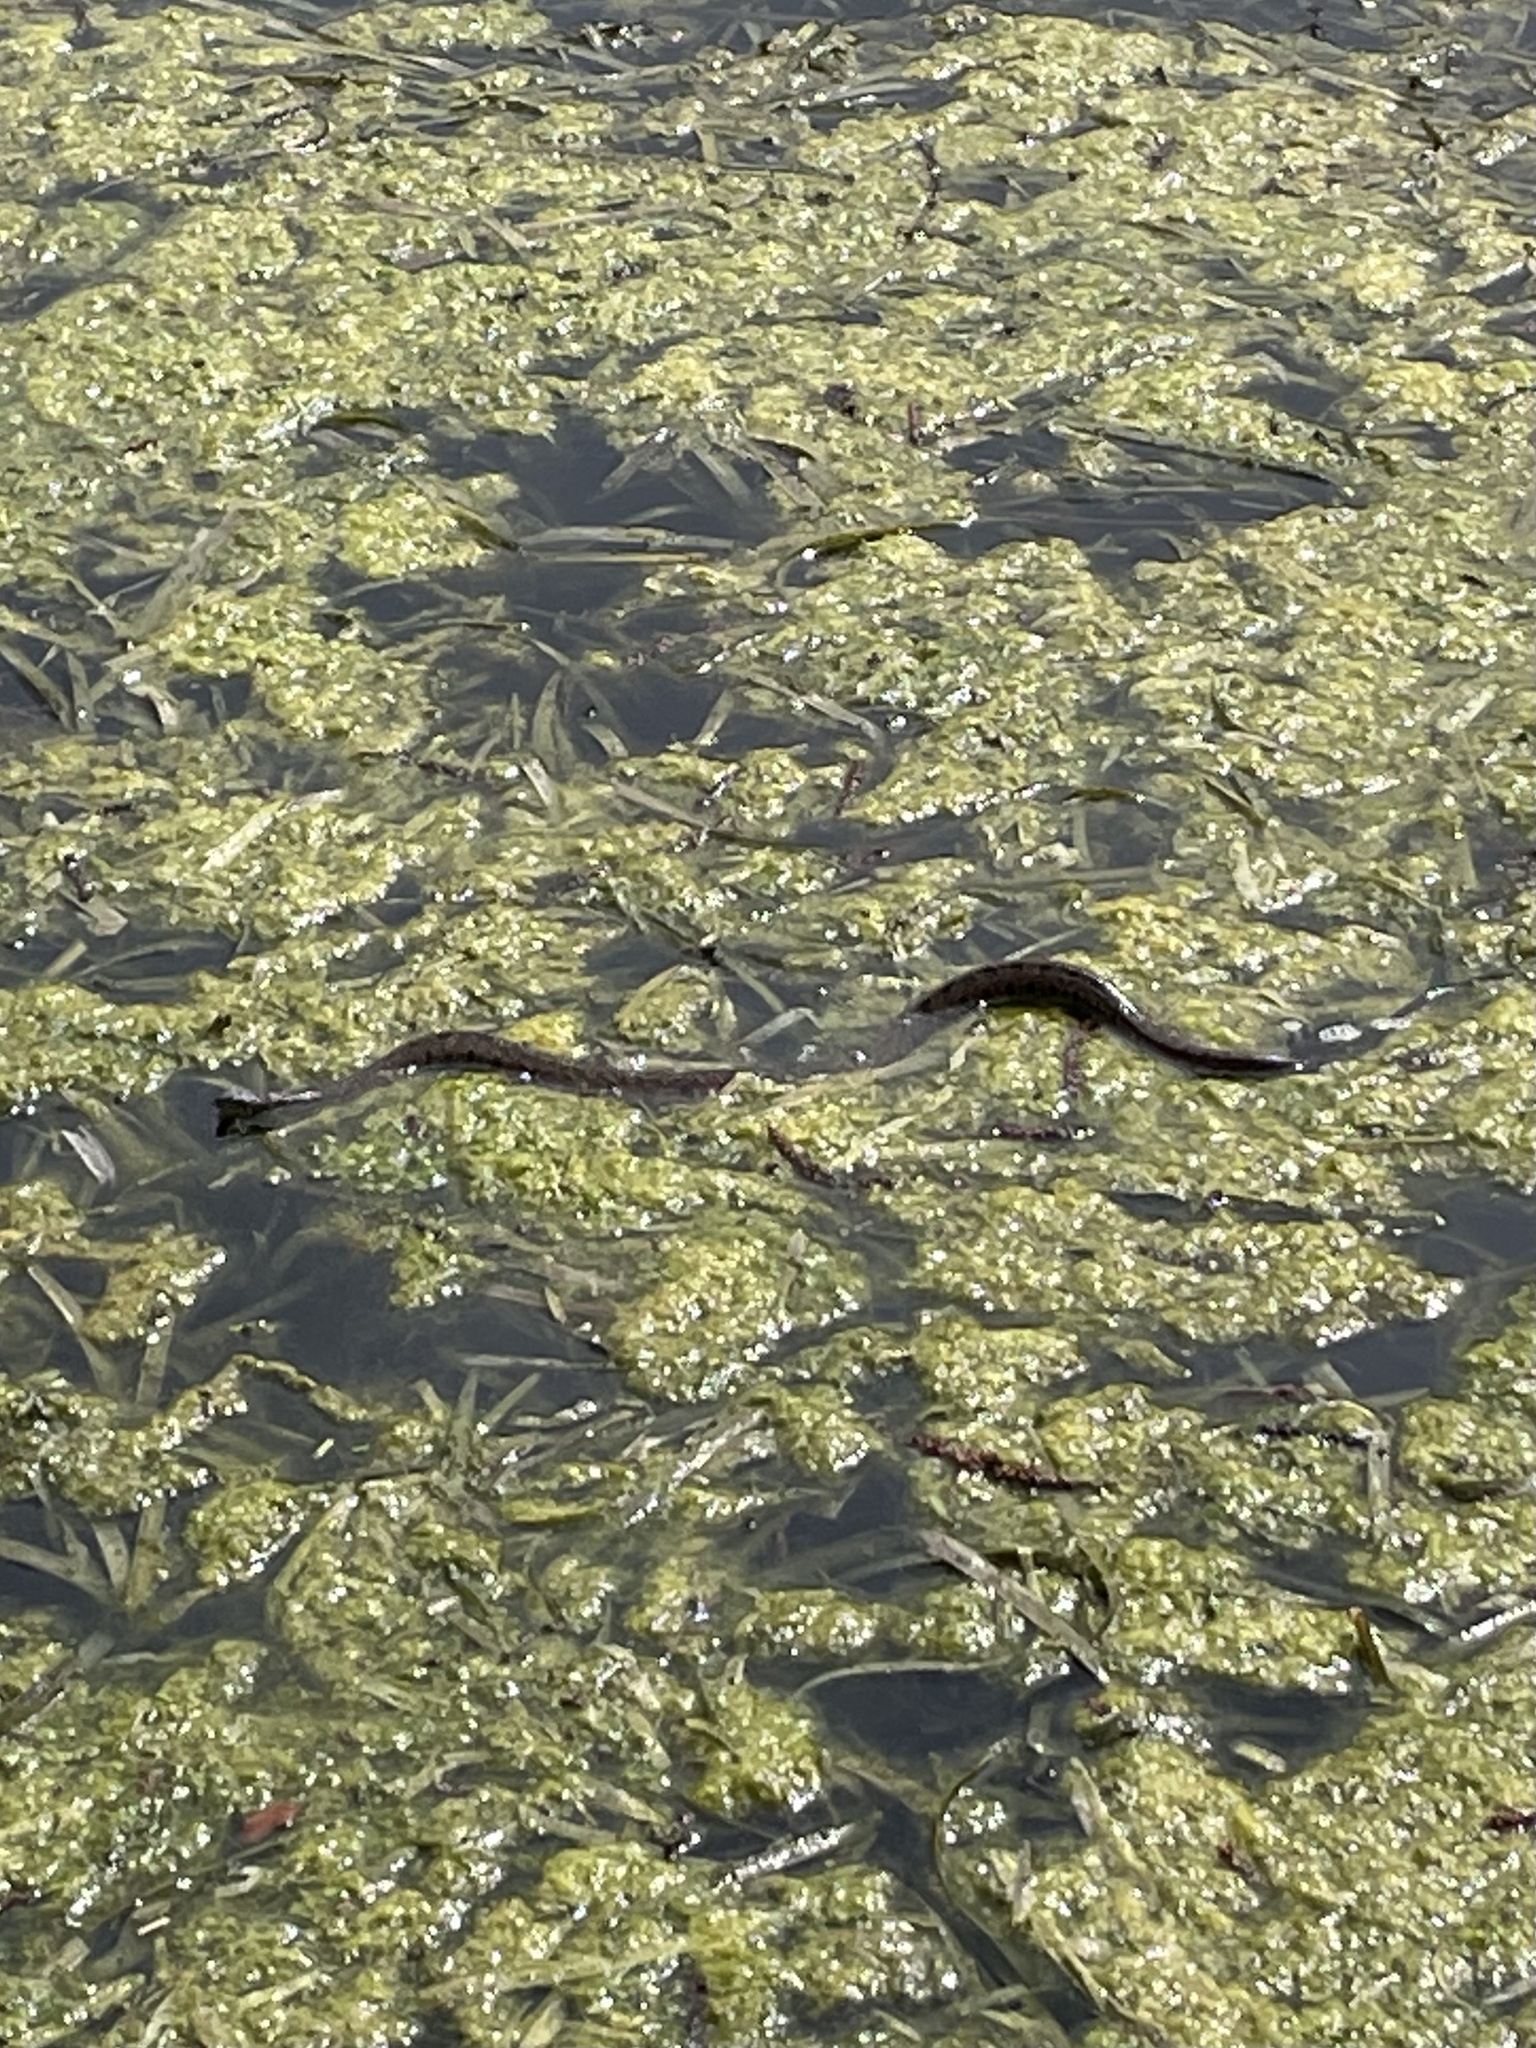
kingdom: Animalia
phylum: Chordata
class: Squamata
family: Colubridae
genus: Nerodia
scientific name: Nerodia rhombifer
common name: Diamondback water snake
